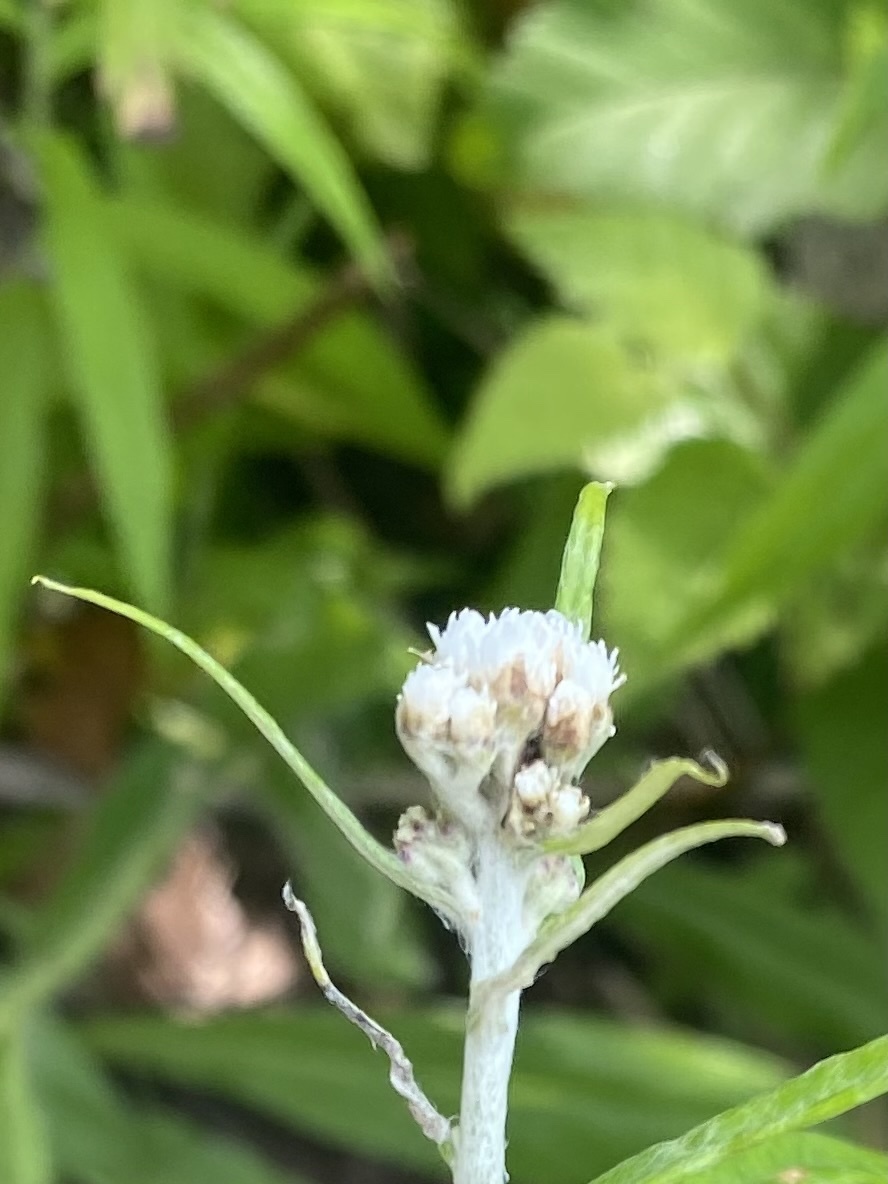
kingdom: Plantae
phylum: Tracheophyta
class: Magnoliopsida
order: Asterales
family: Asteraceae
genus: Anaphalis
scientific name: Anaphalis margaritacea
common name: Pearly everlasting
